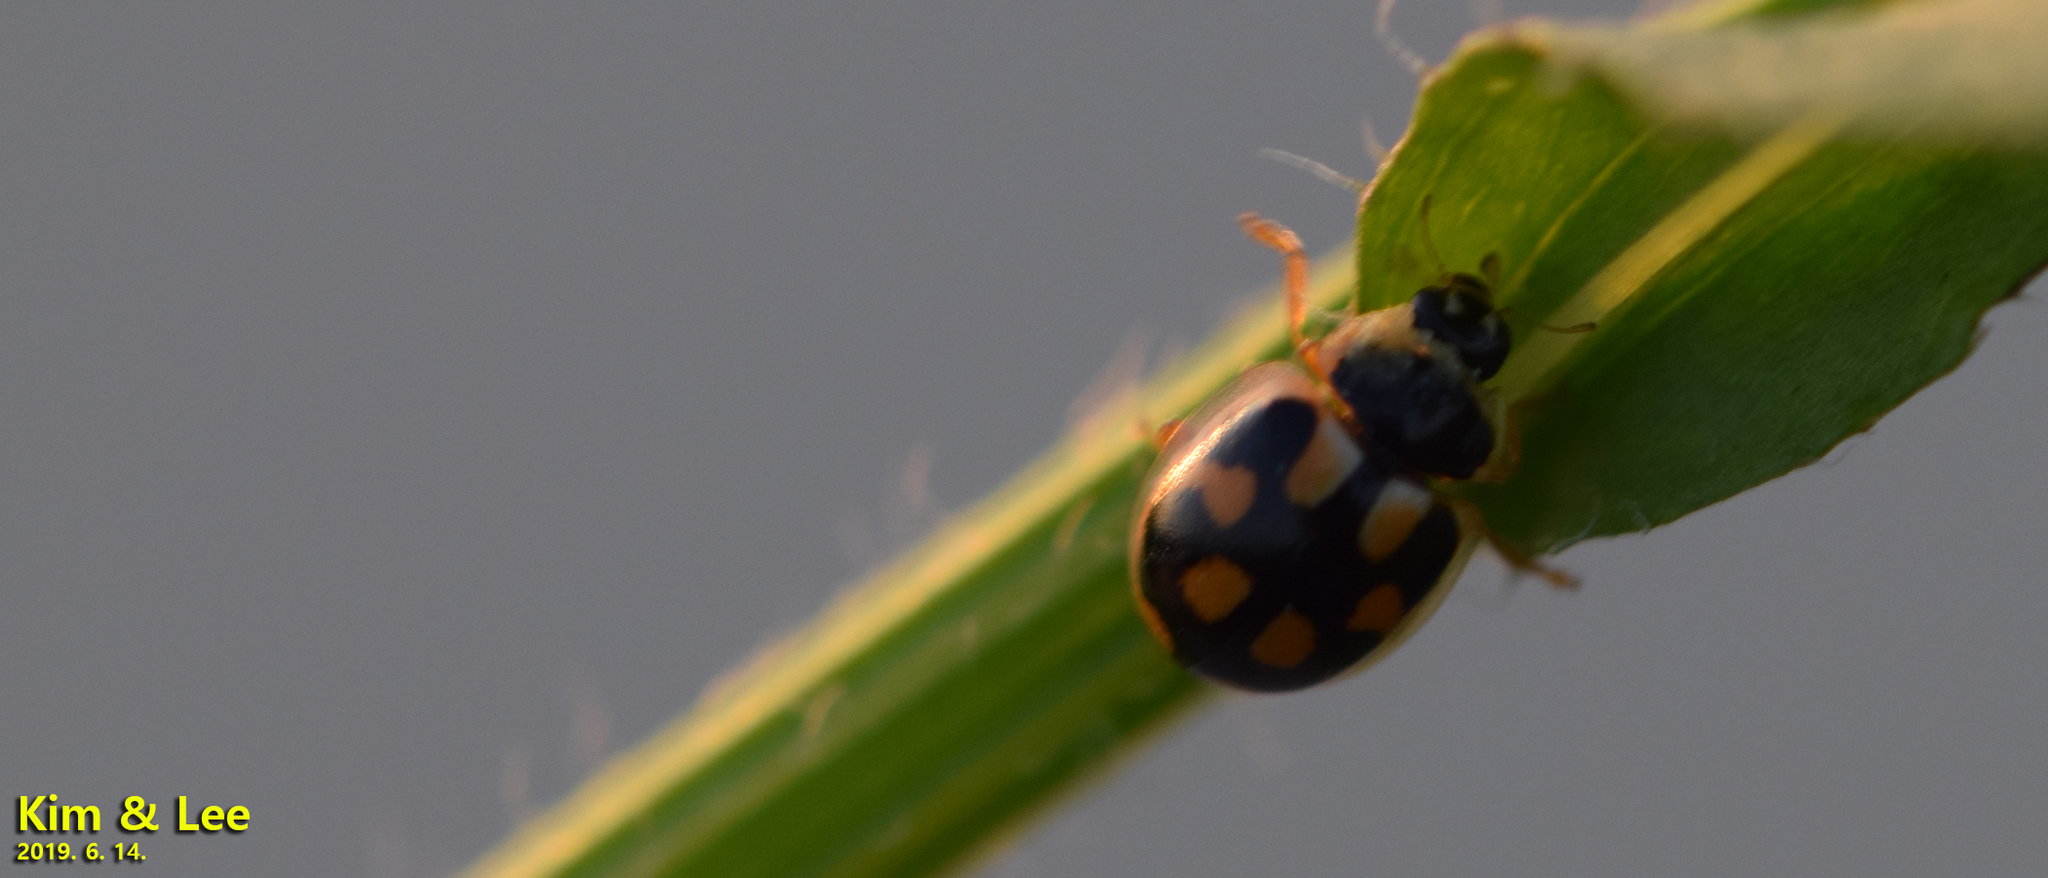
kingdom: Animalia
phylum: Arthropoda
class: Insecta
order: Coleoptera
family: Coccinellidae
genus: Propylea
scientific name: Propylea japonica
